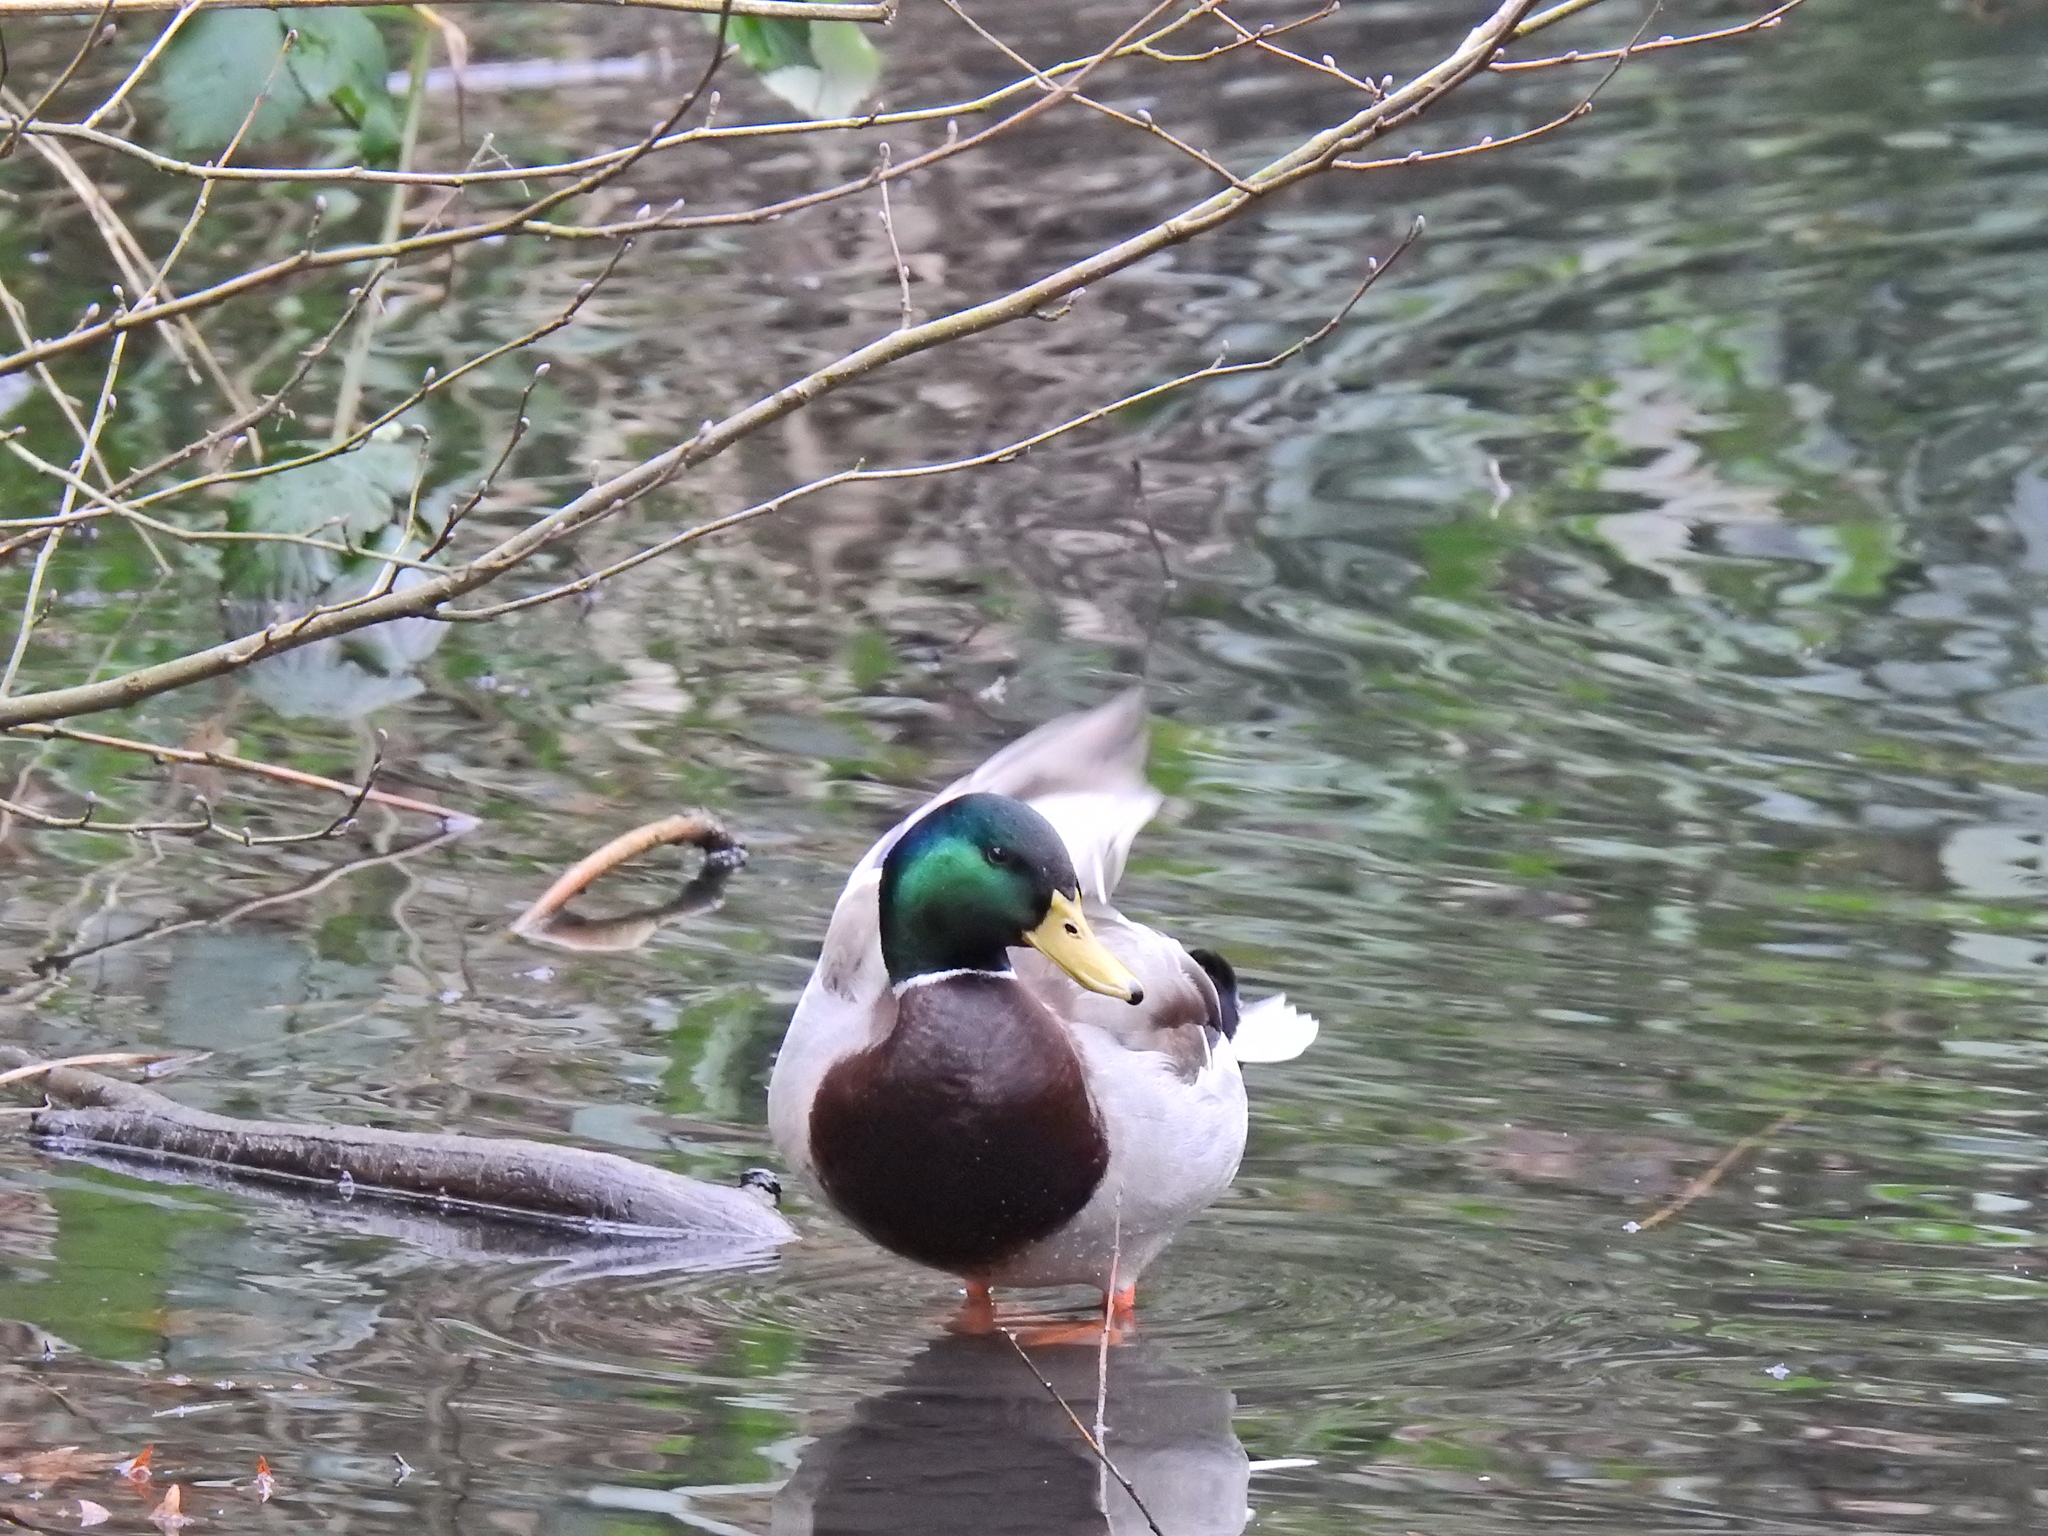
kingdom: Animalia
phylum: Chordata
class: Aves
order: Anseriformes
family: Anatidae
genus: Anas
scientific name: Anas platyrhynchos
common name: Mallard
